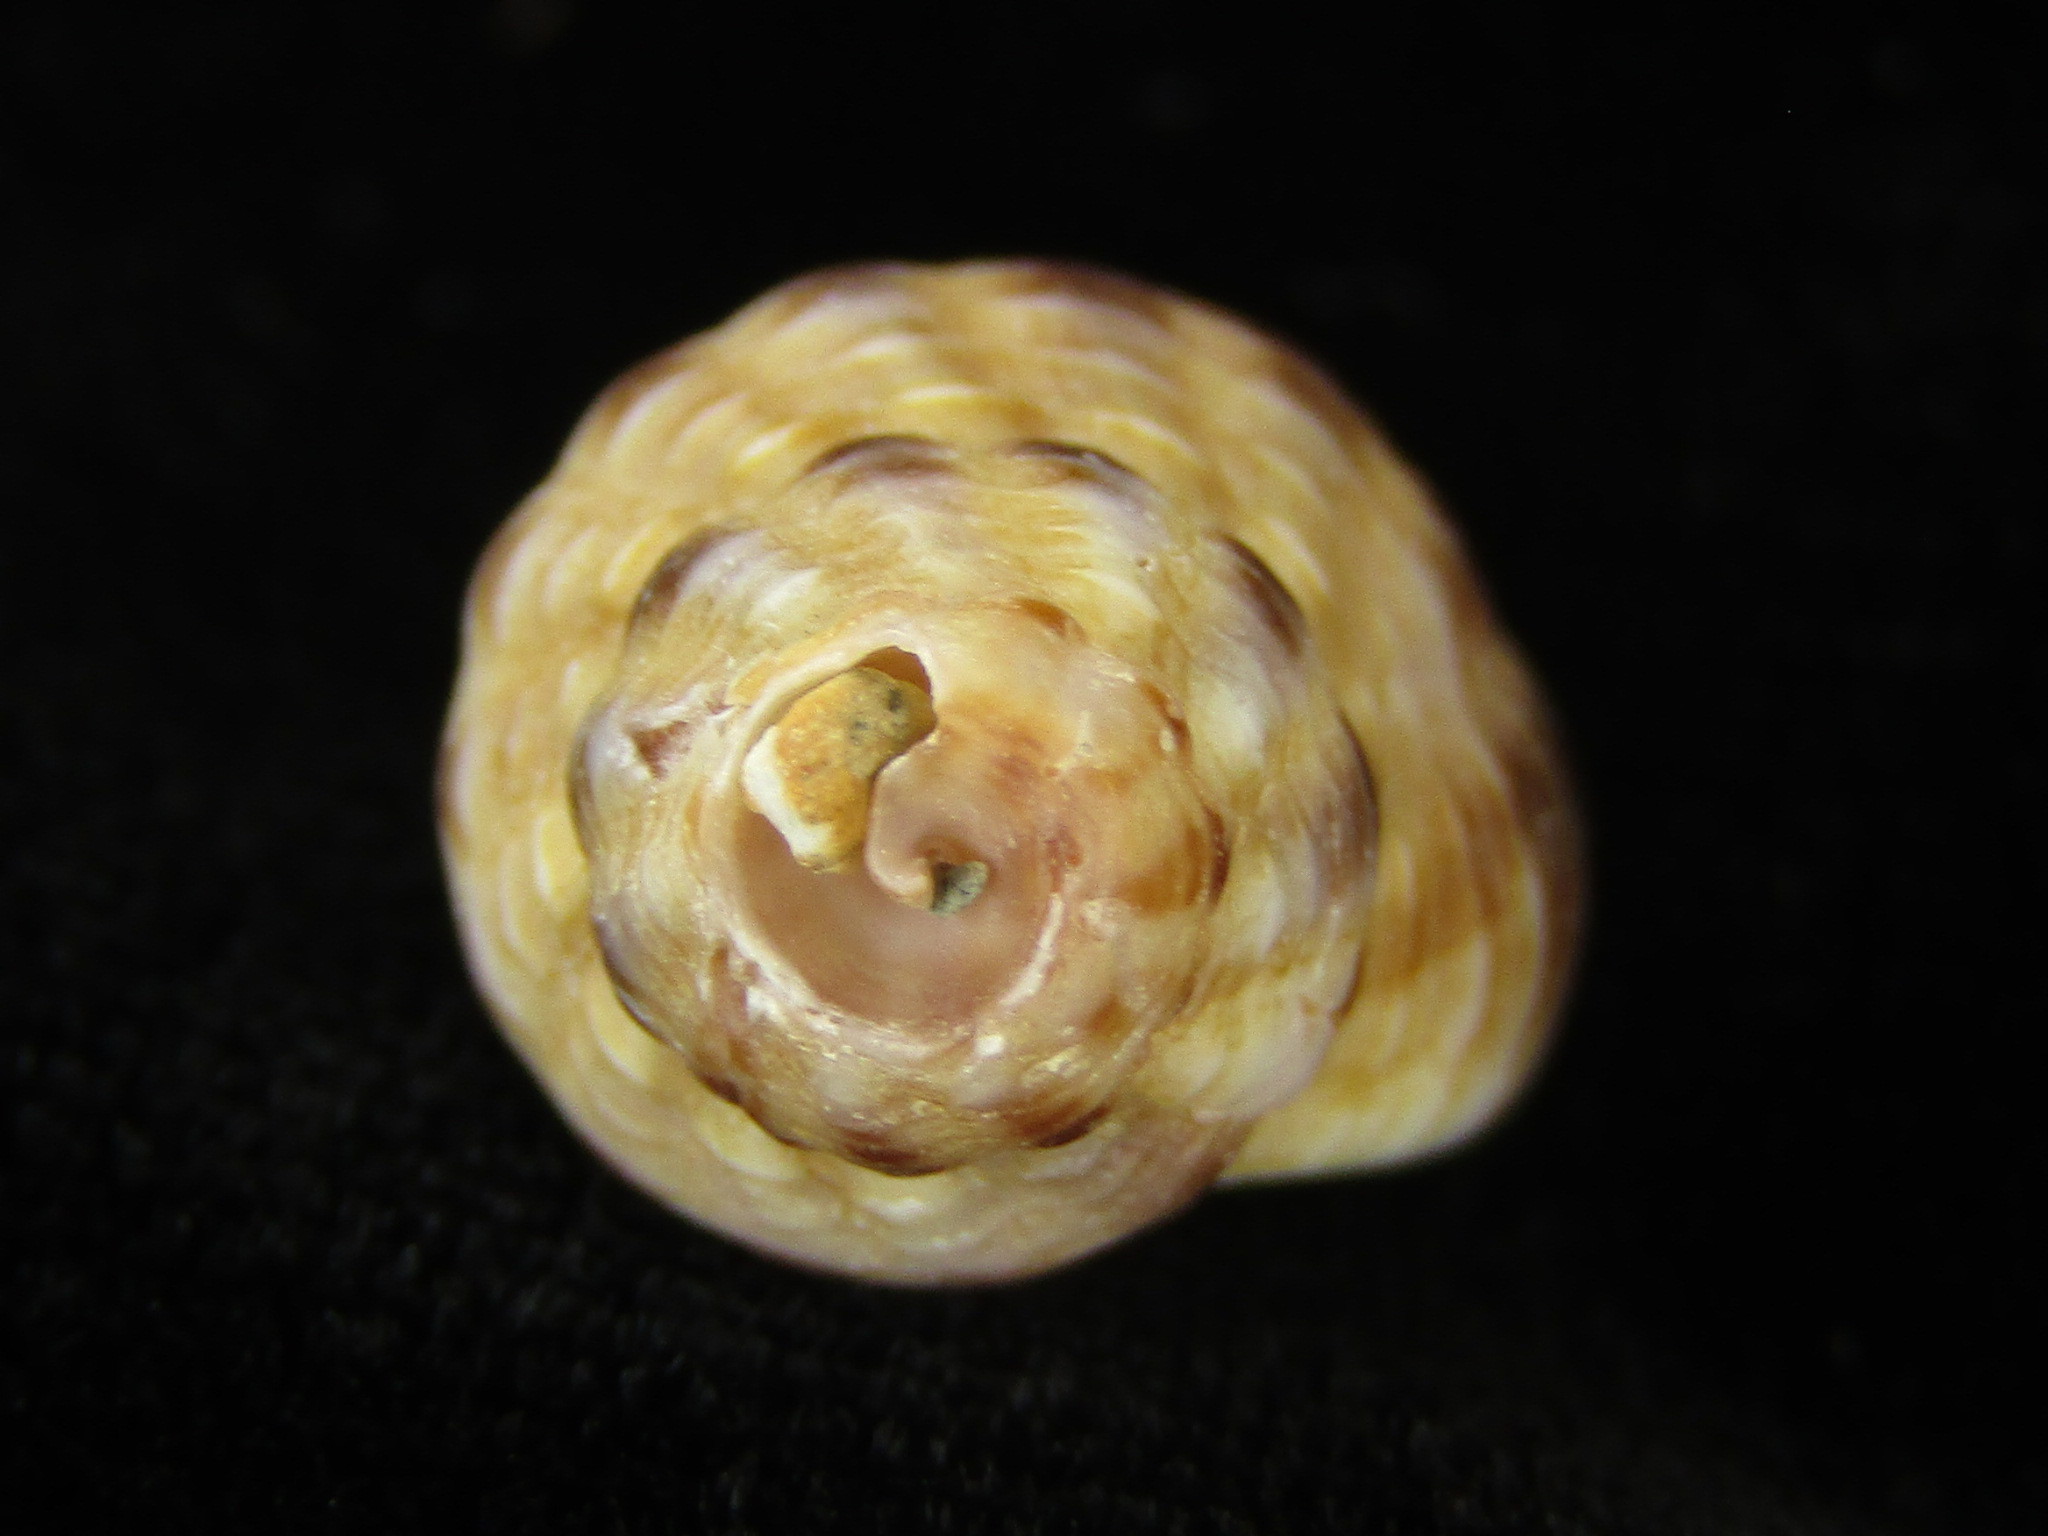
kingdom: Animalia
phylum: Mollusca
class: Gastropoda
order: Neogastropoda
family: Pisaniidae
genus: Pollia
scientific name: Pollia subrubiginosa
